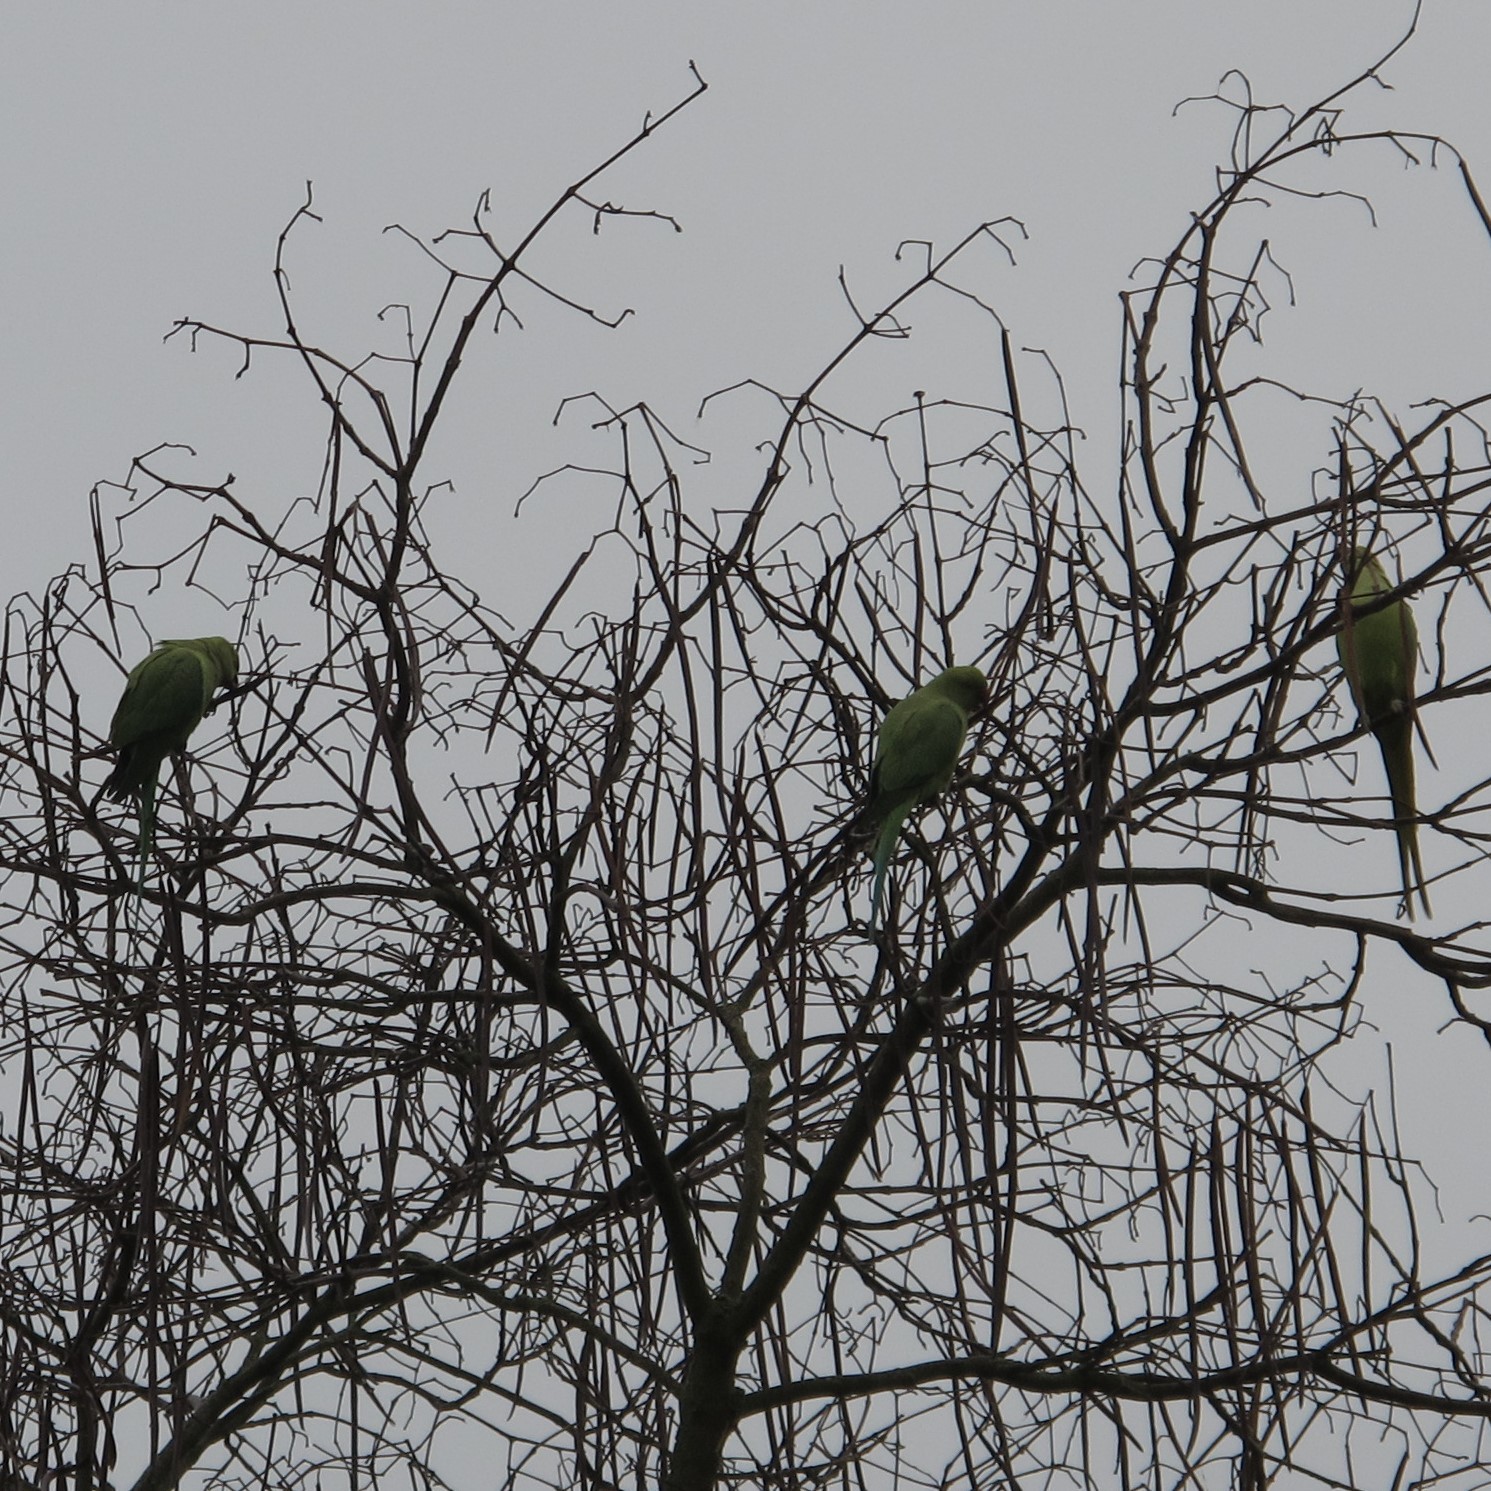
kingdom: Animalia
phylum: Chordata
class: Aves
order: Psittaciformes
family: Psittacidae
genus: Psittacula
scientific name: Psittacula krameri
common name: Rose-ringed parakeet
